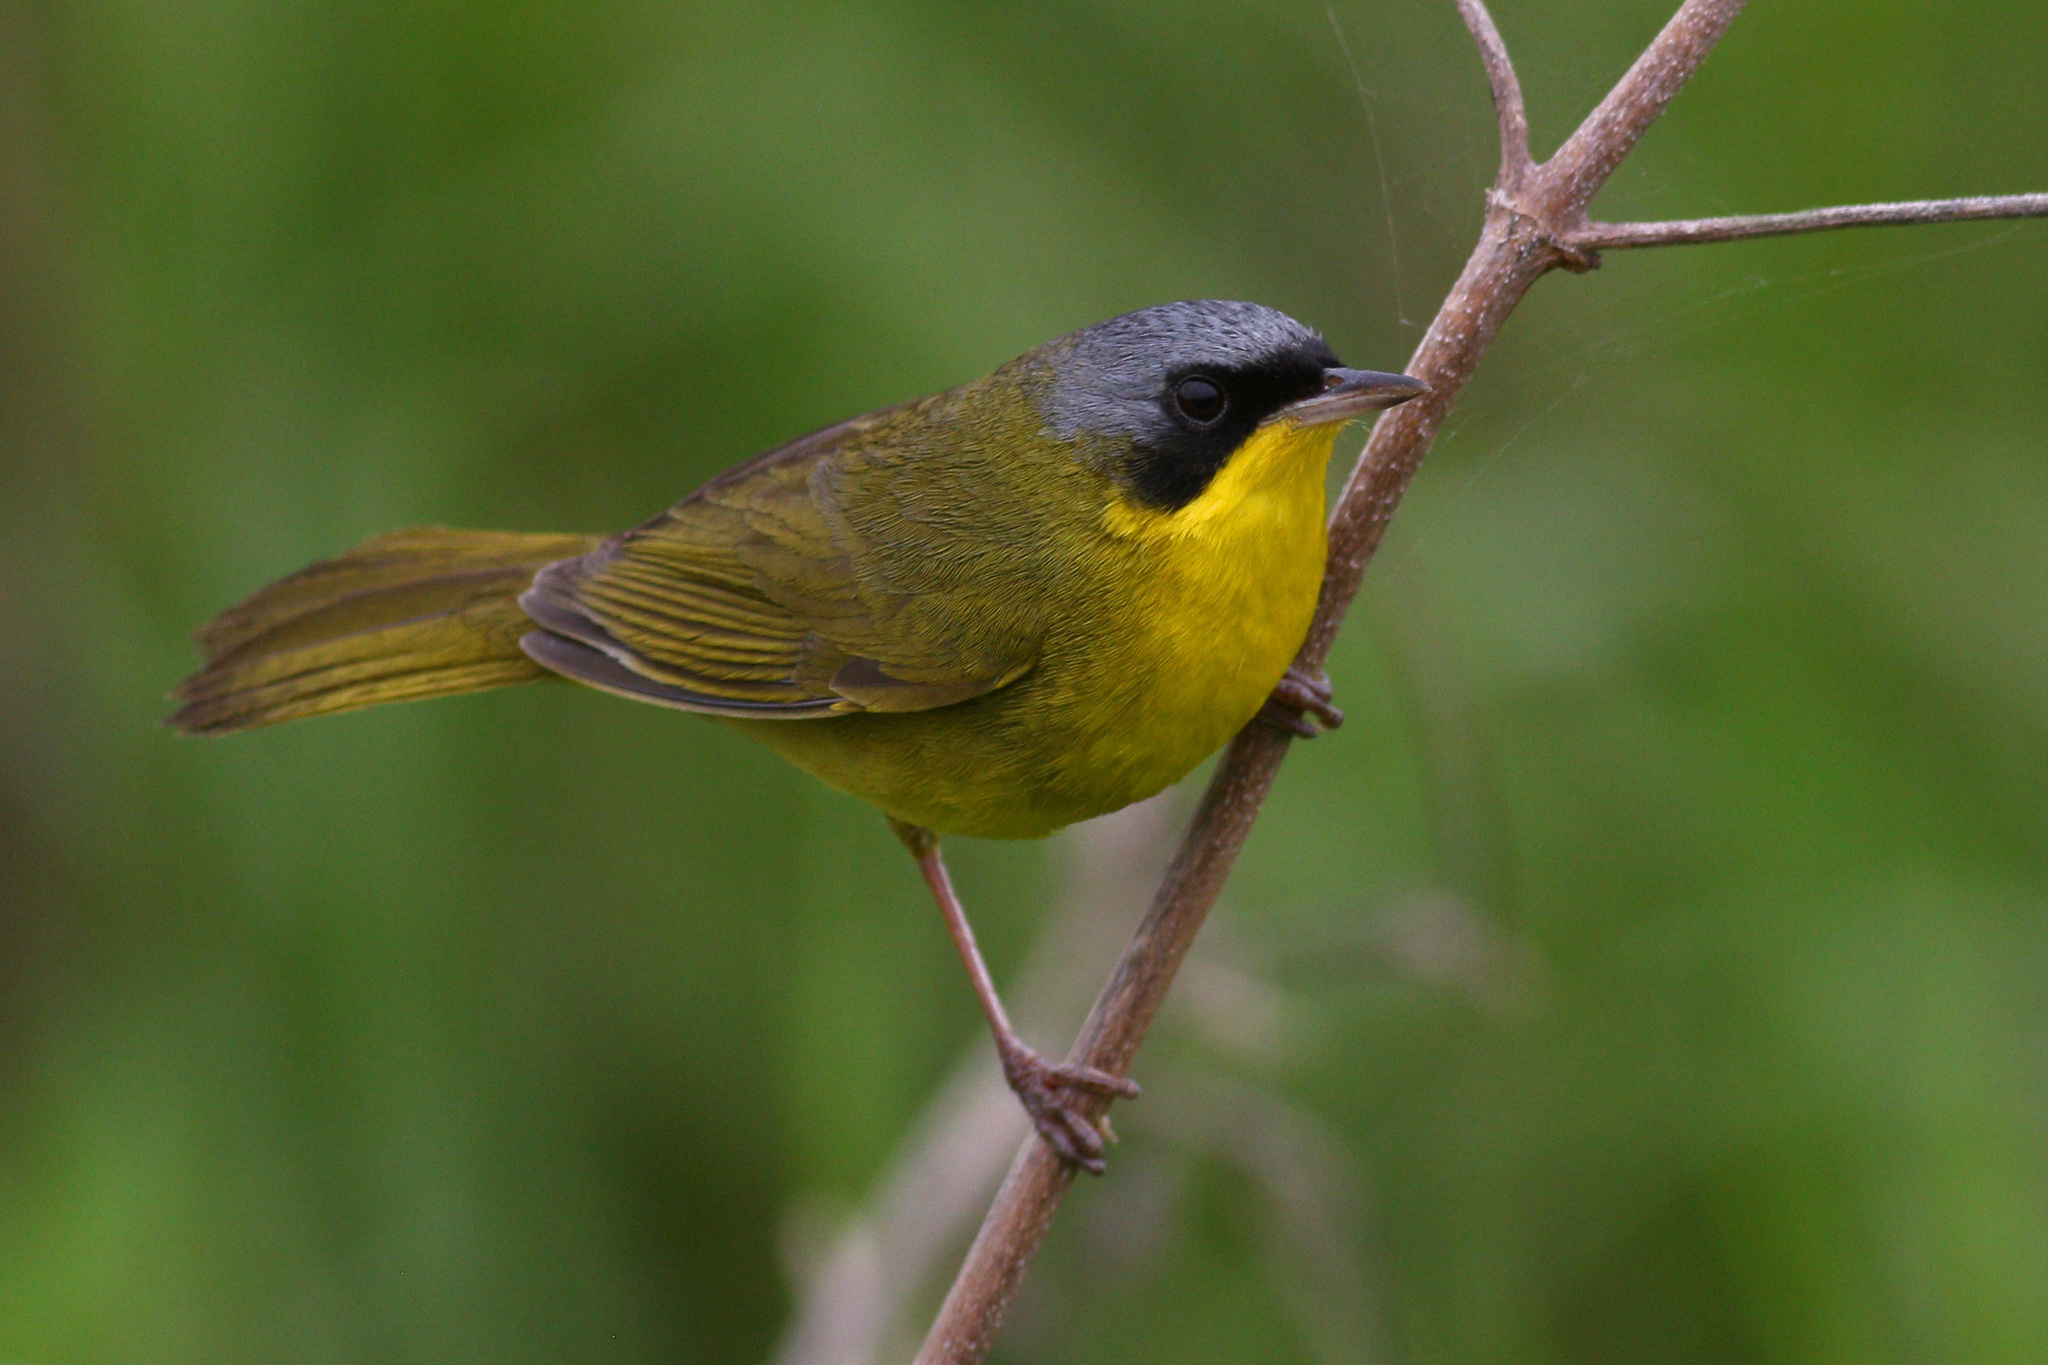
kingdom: Animalia
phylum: Chordata
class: Aves
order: Passeriformes
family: Parulidae
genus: Geothlypis
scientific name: Geothlypis velata
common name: Southern yellowthroat
